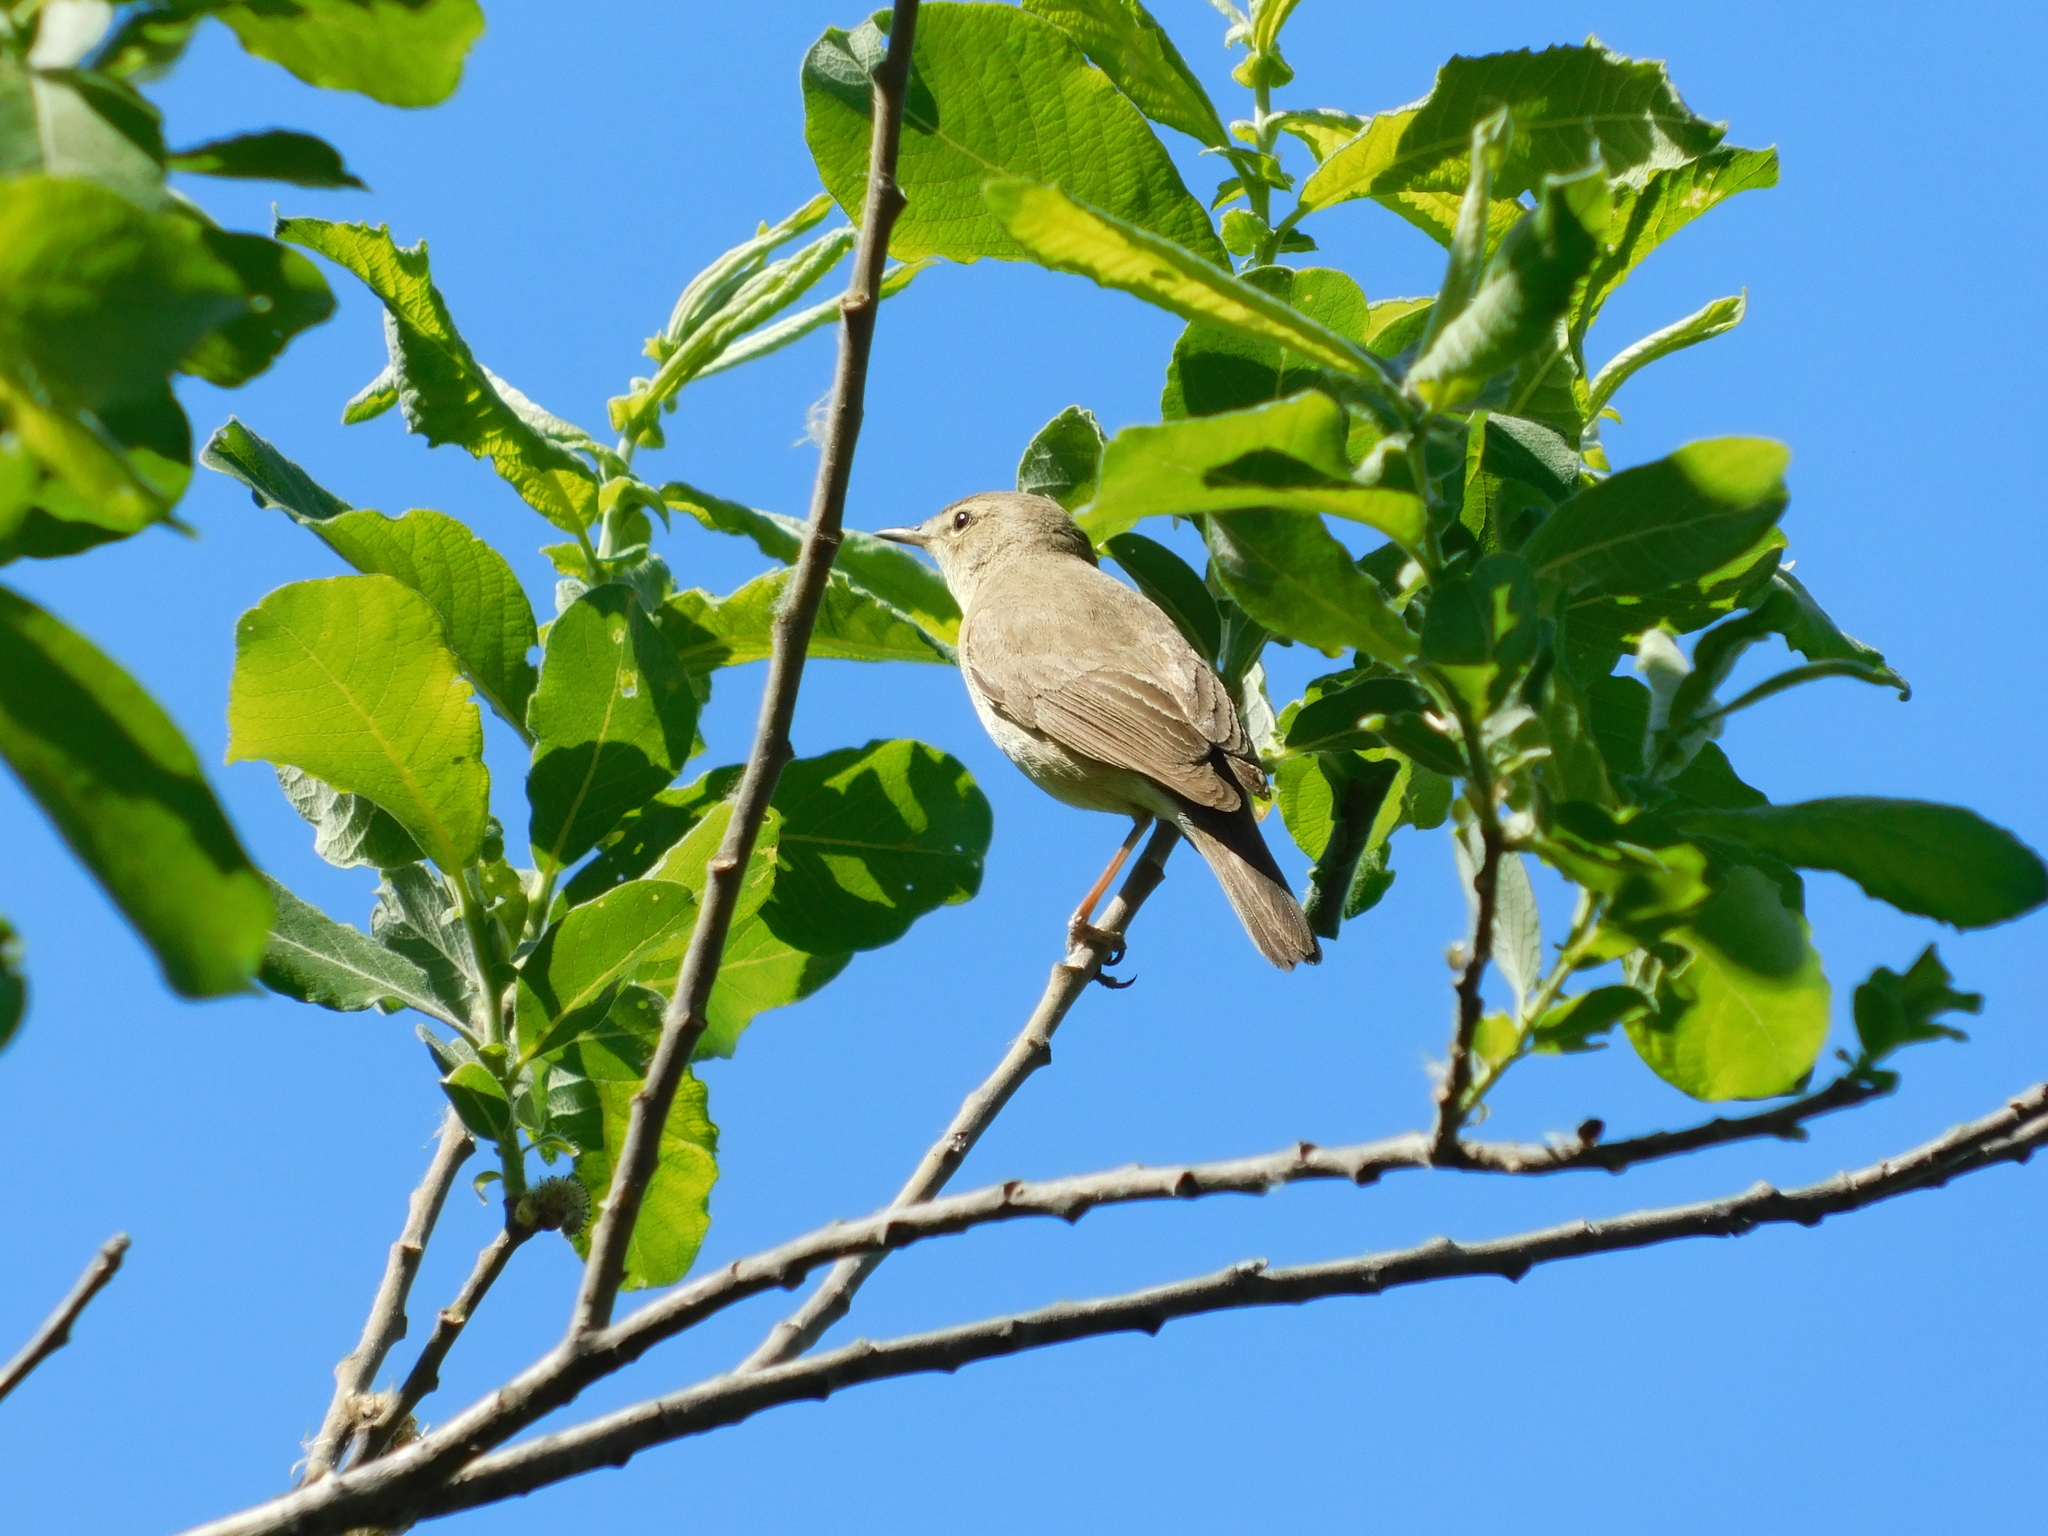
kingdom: Animalia
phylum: Chordata
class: Aves
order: Passeriformes
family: Acrocephalidae
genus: Iduna
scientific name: Iduna caligata
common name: Booted warbler
